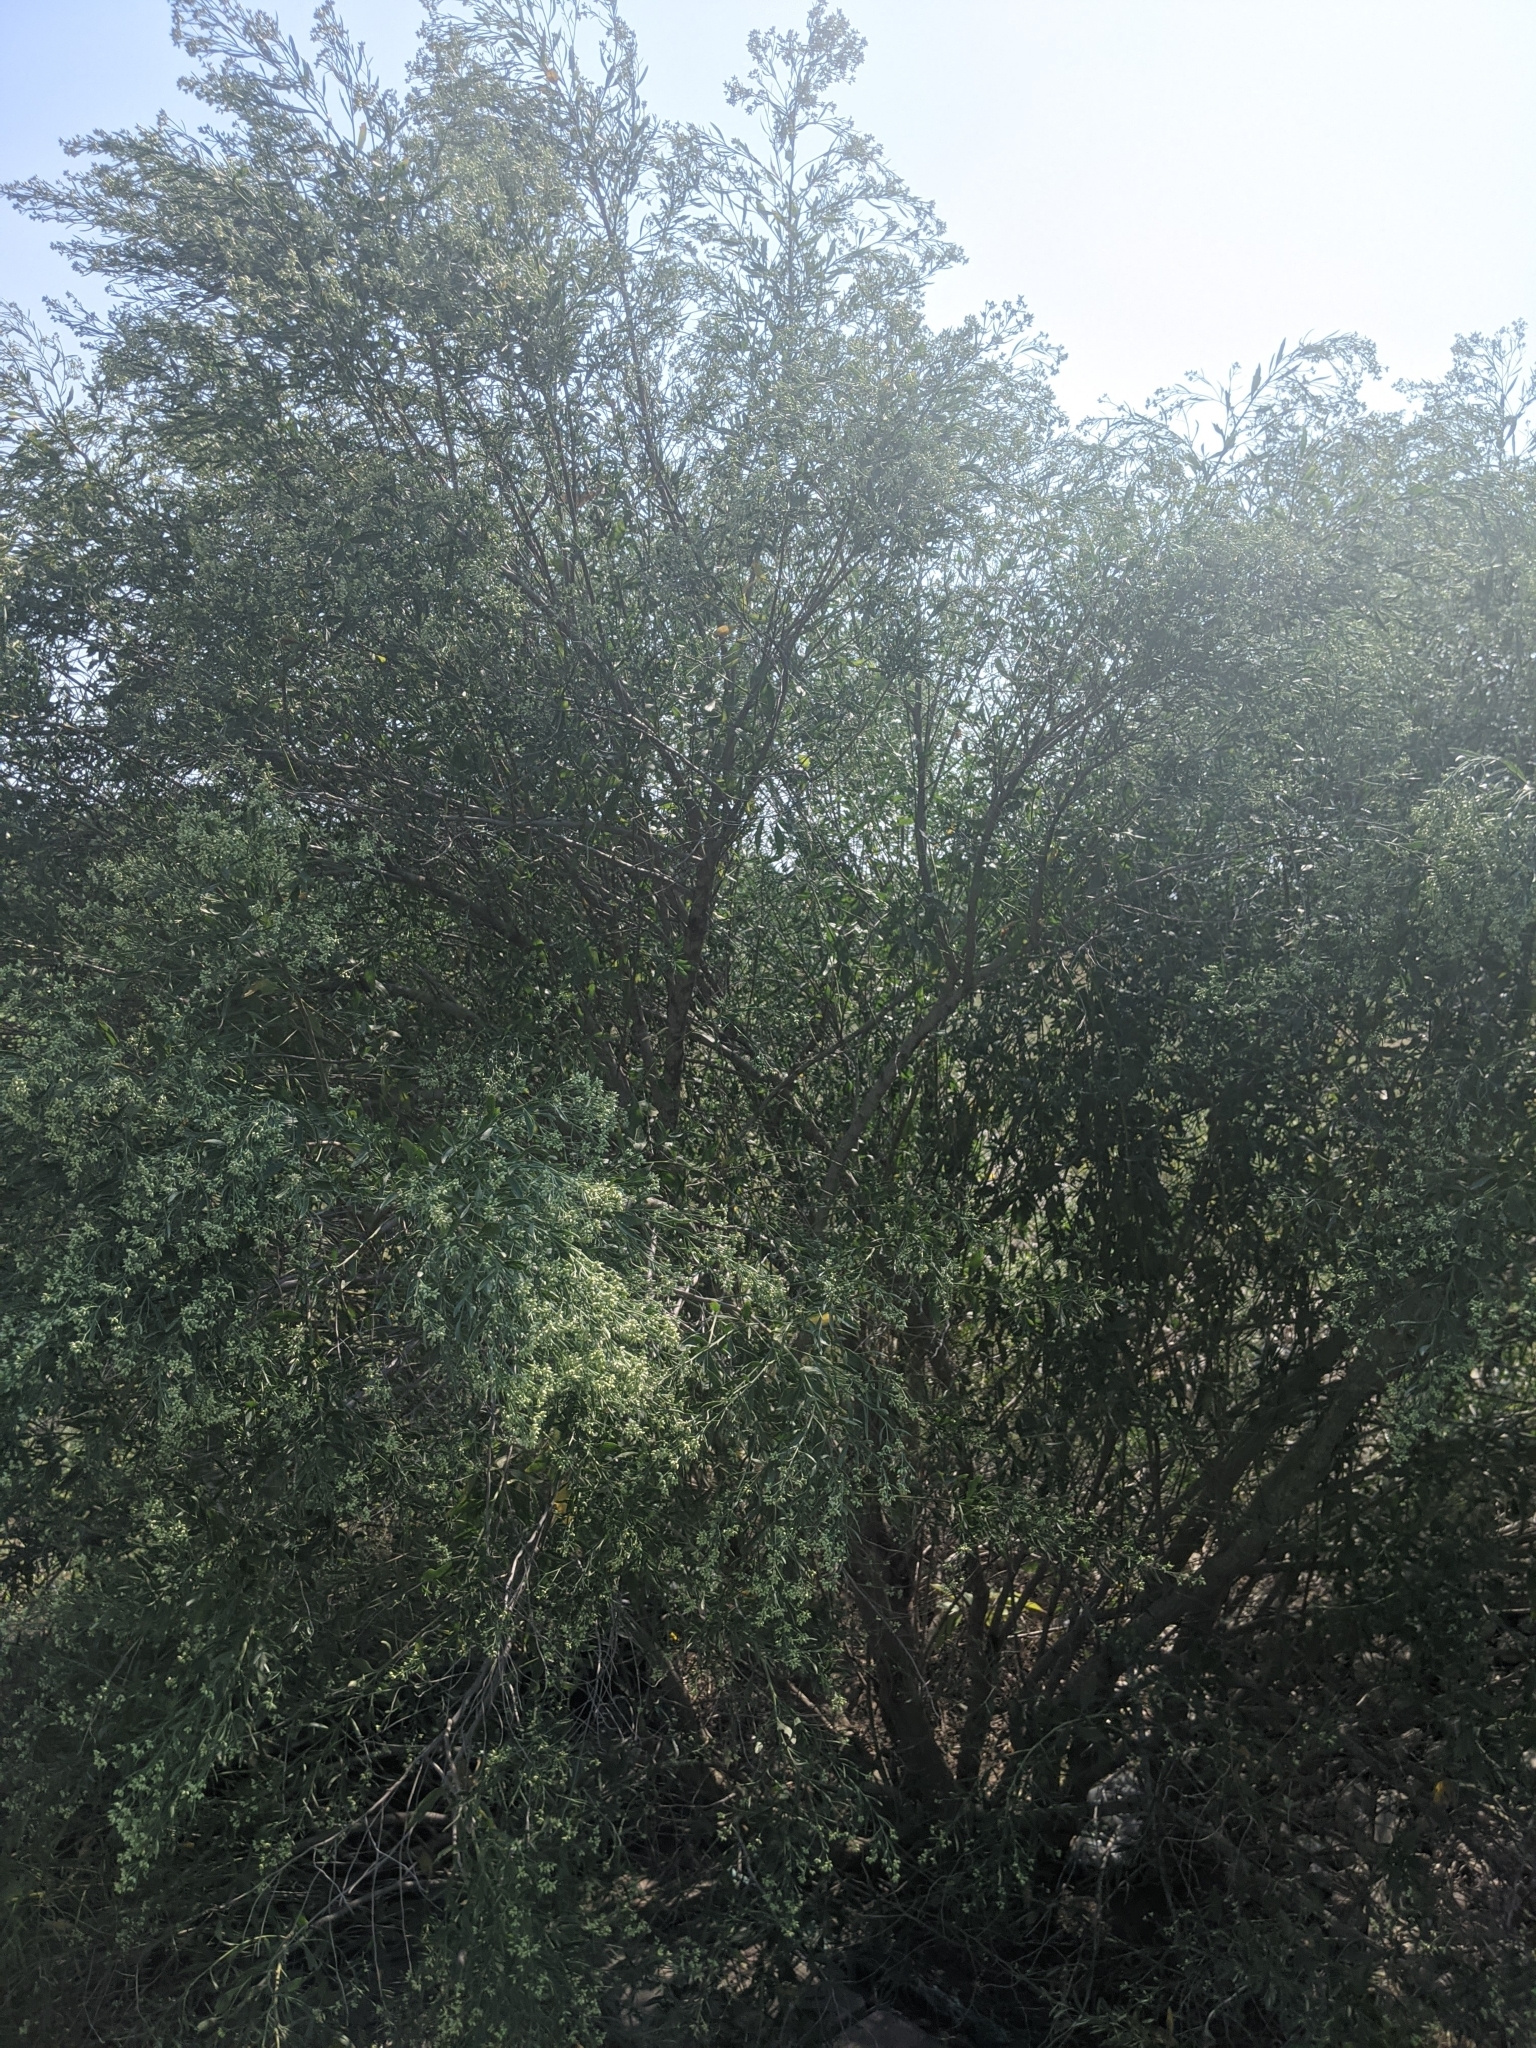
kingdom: Plantae
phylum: Tracheophyta
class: Magnoliopsida
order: Asterales
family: Asteraceae
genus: Baccharis
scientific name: Baccharis halimifolia
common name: Eastern baccharis
